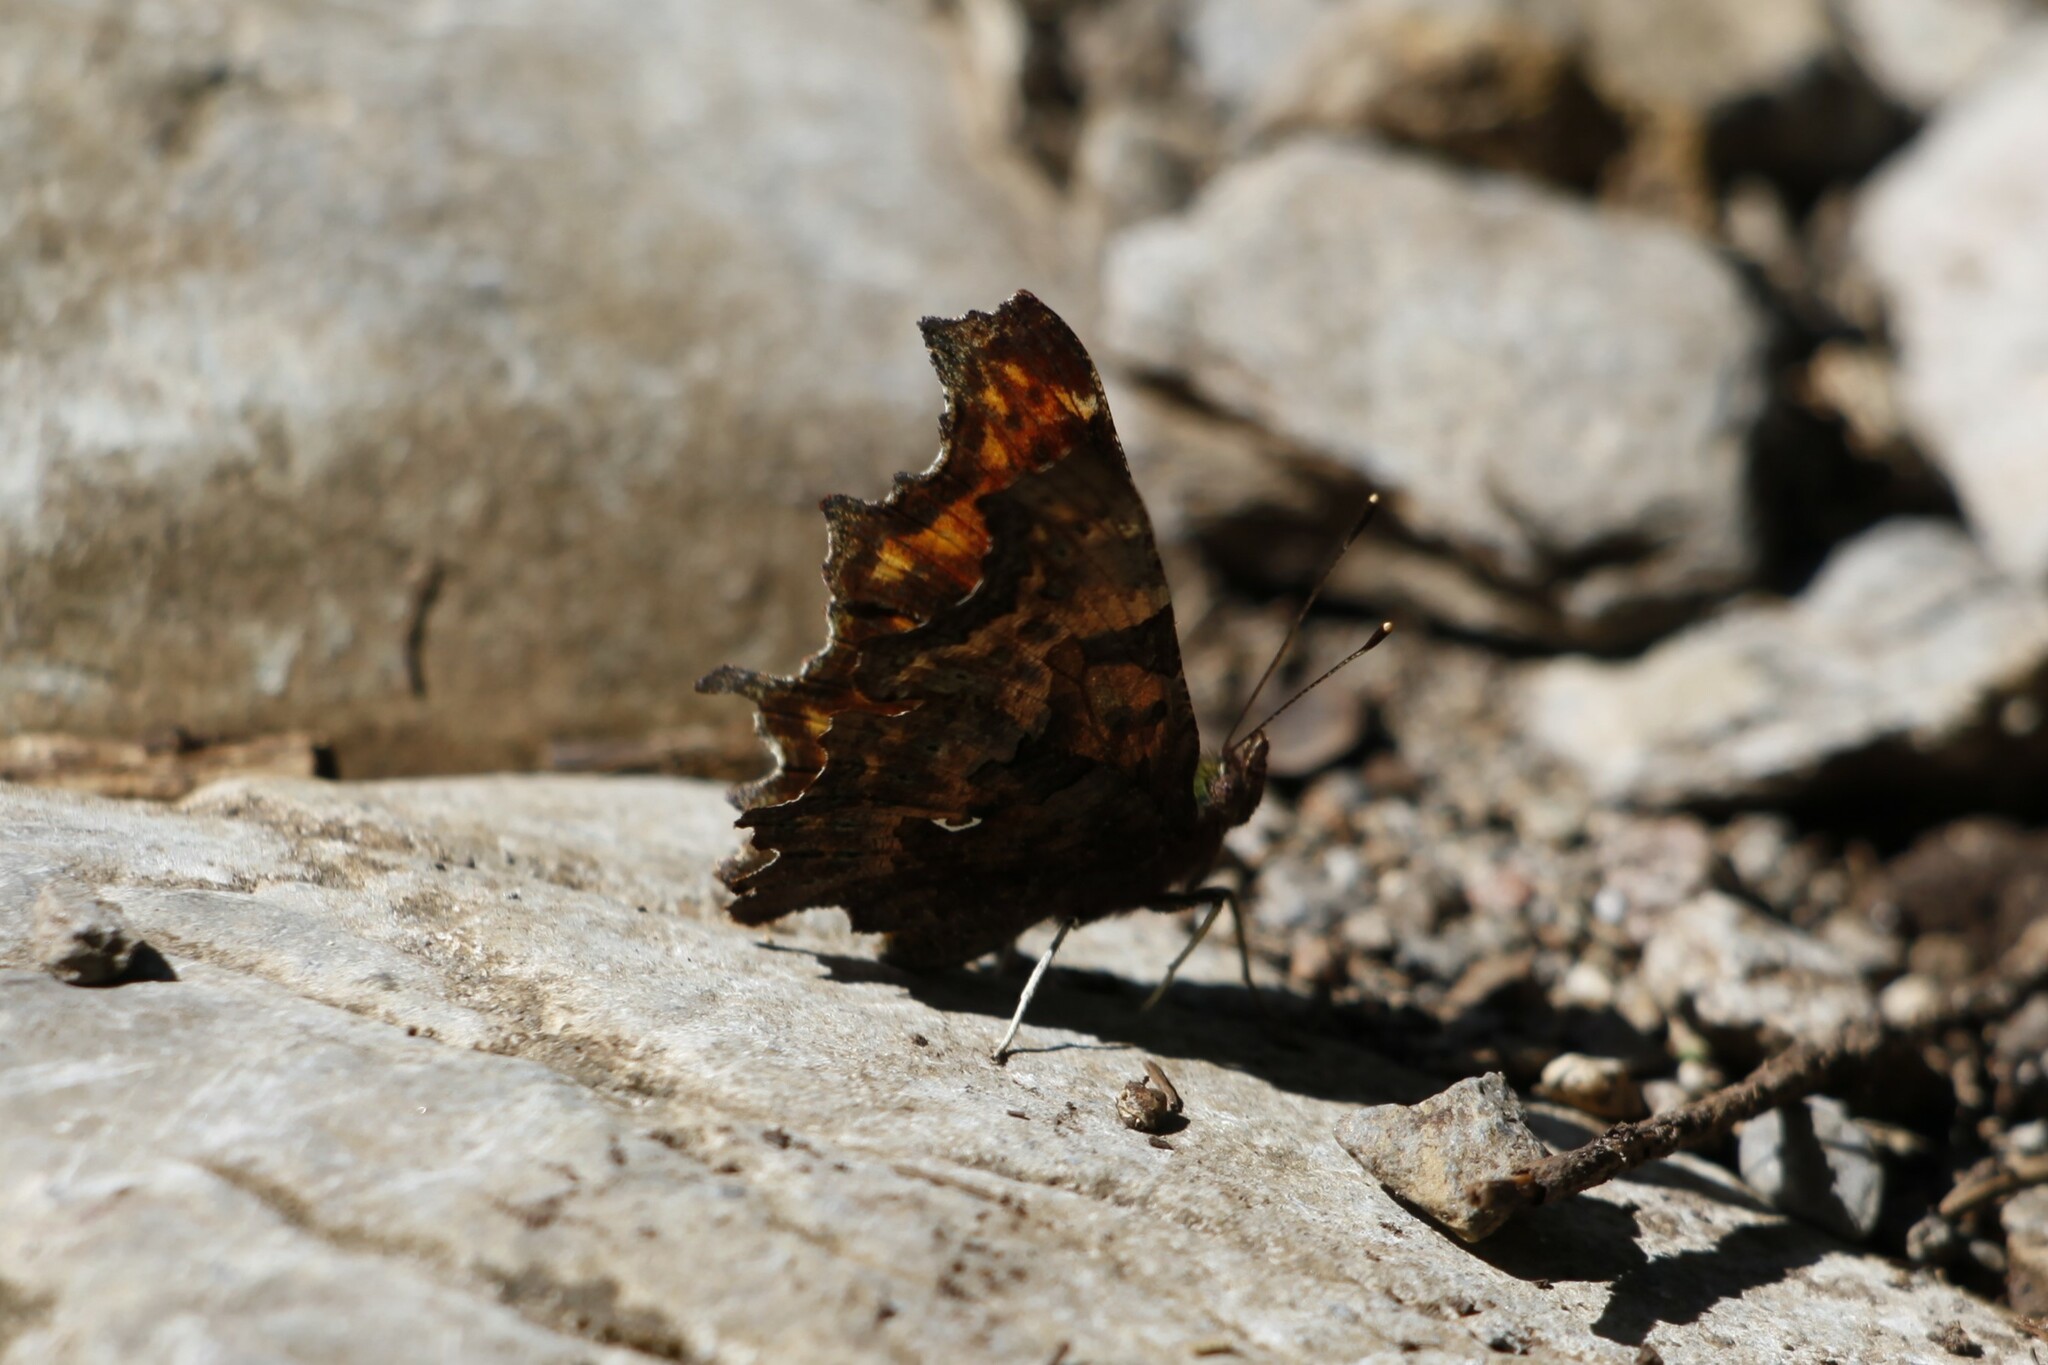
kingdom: Animalia
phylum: Arthropoda
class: Insecta
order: Lepidoptera
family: Nymphalidae
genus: Polygonia
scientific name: Polygonia c-album
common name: Comma
